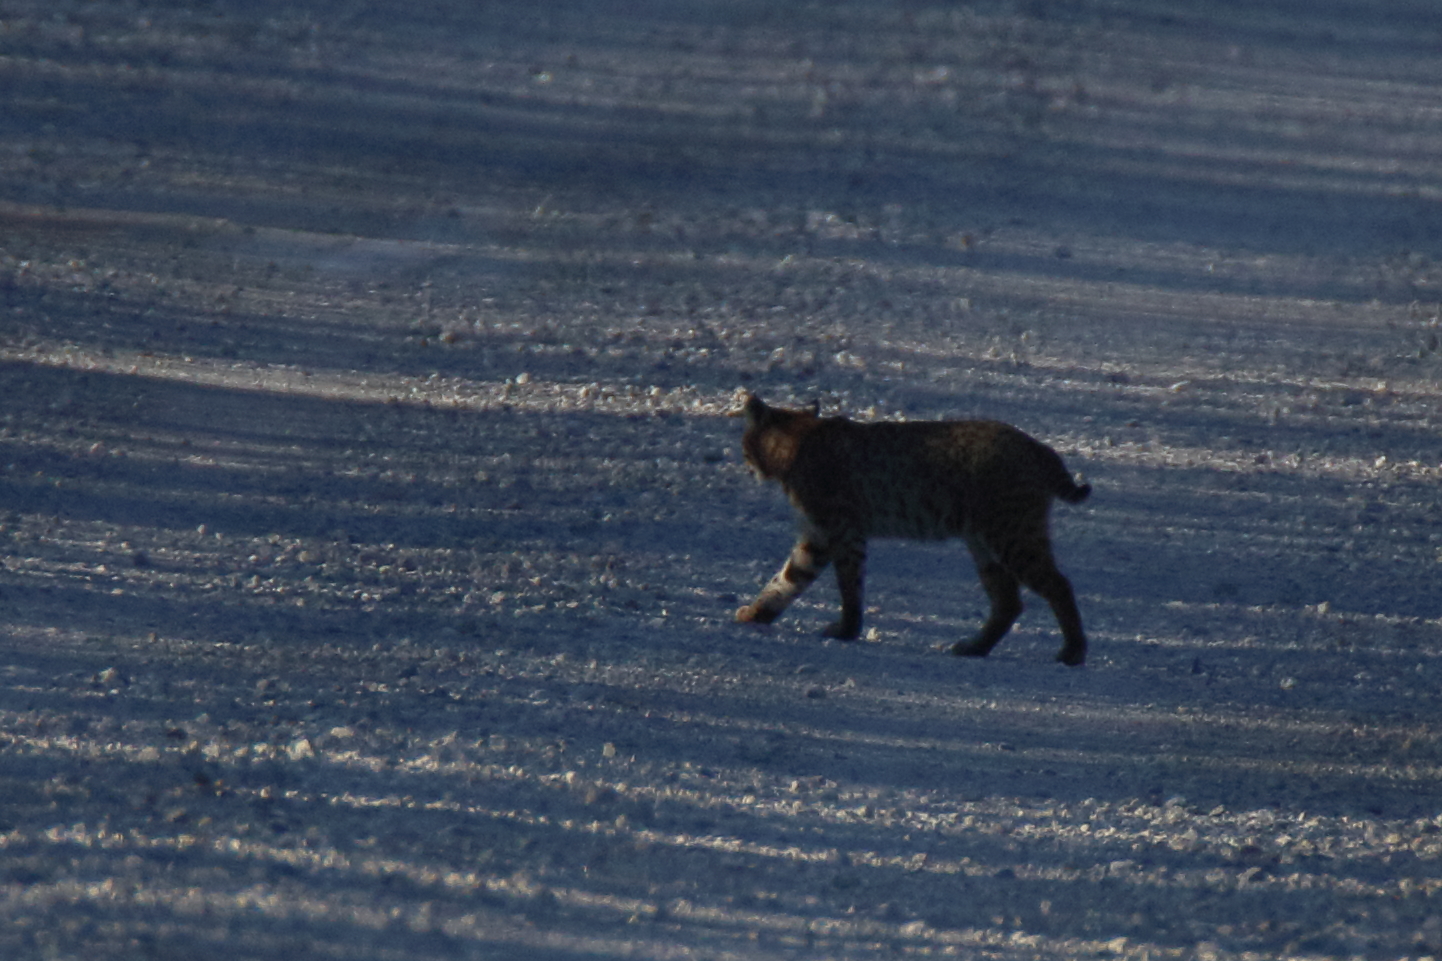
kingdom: Animalia
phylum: Chordata
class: Mammalia
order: Carnivora
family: Felidae
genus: Lynx
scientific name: Lynx rufus
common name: Bobcat
